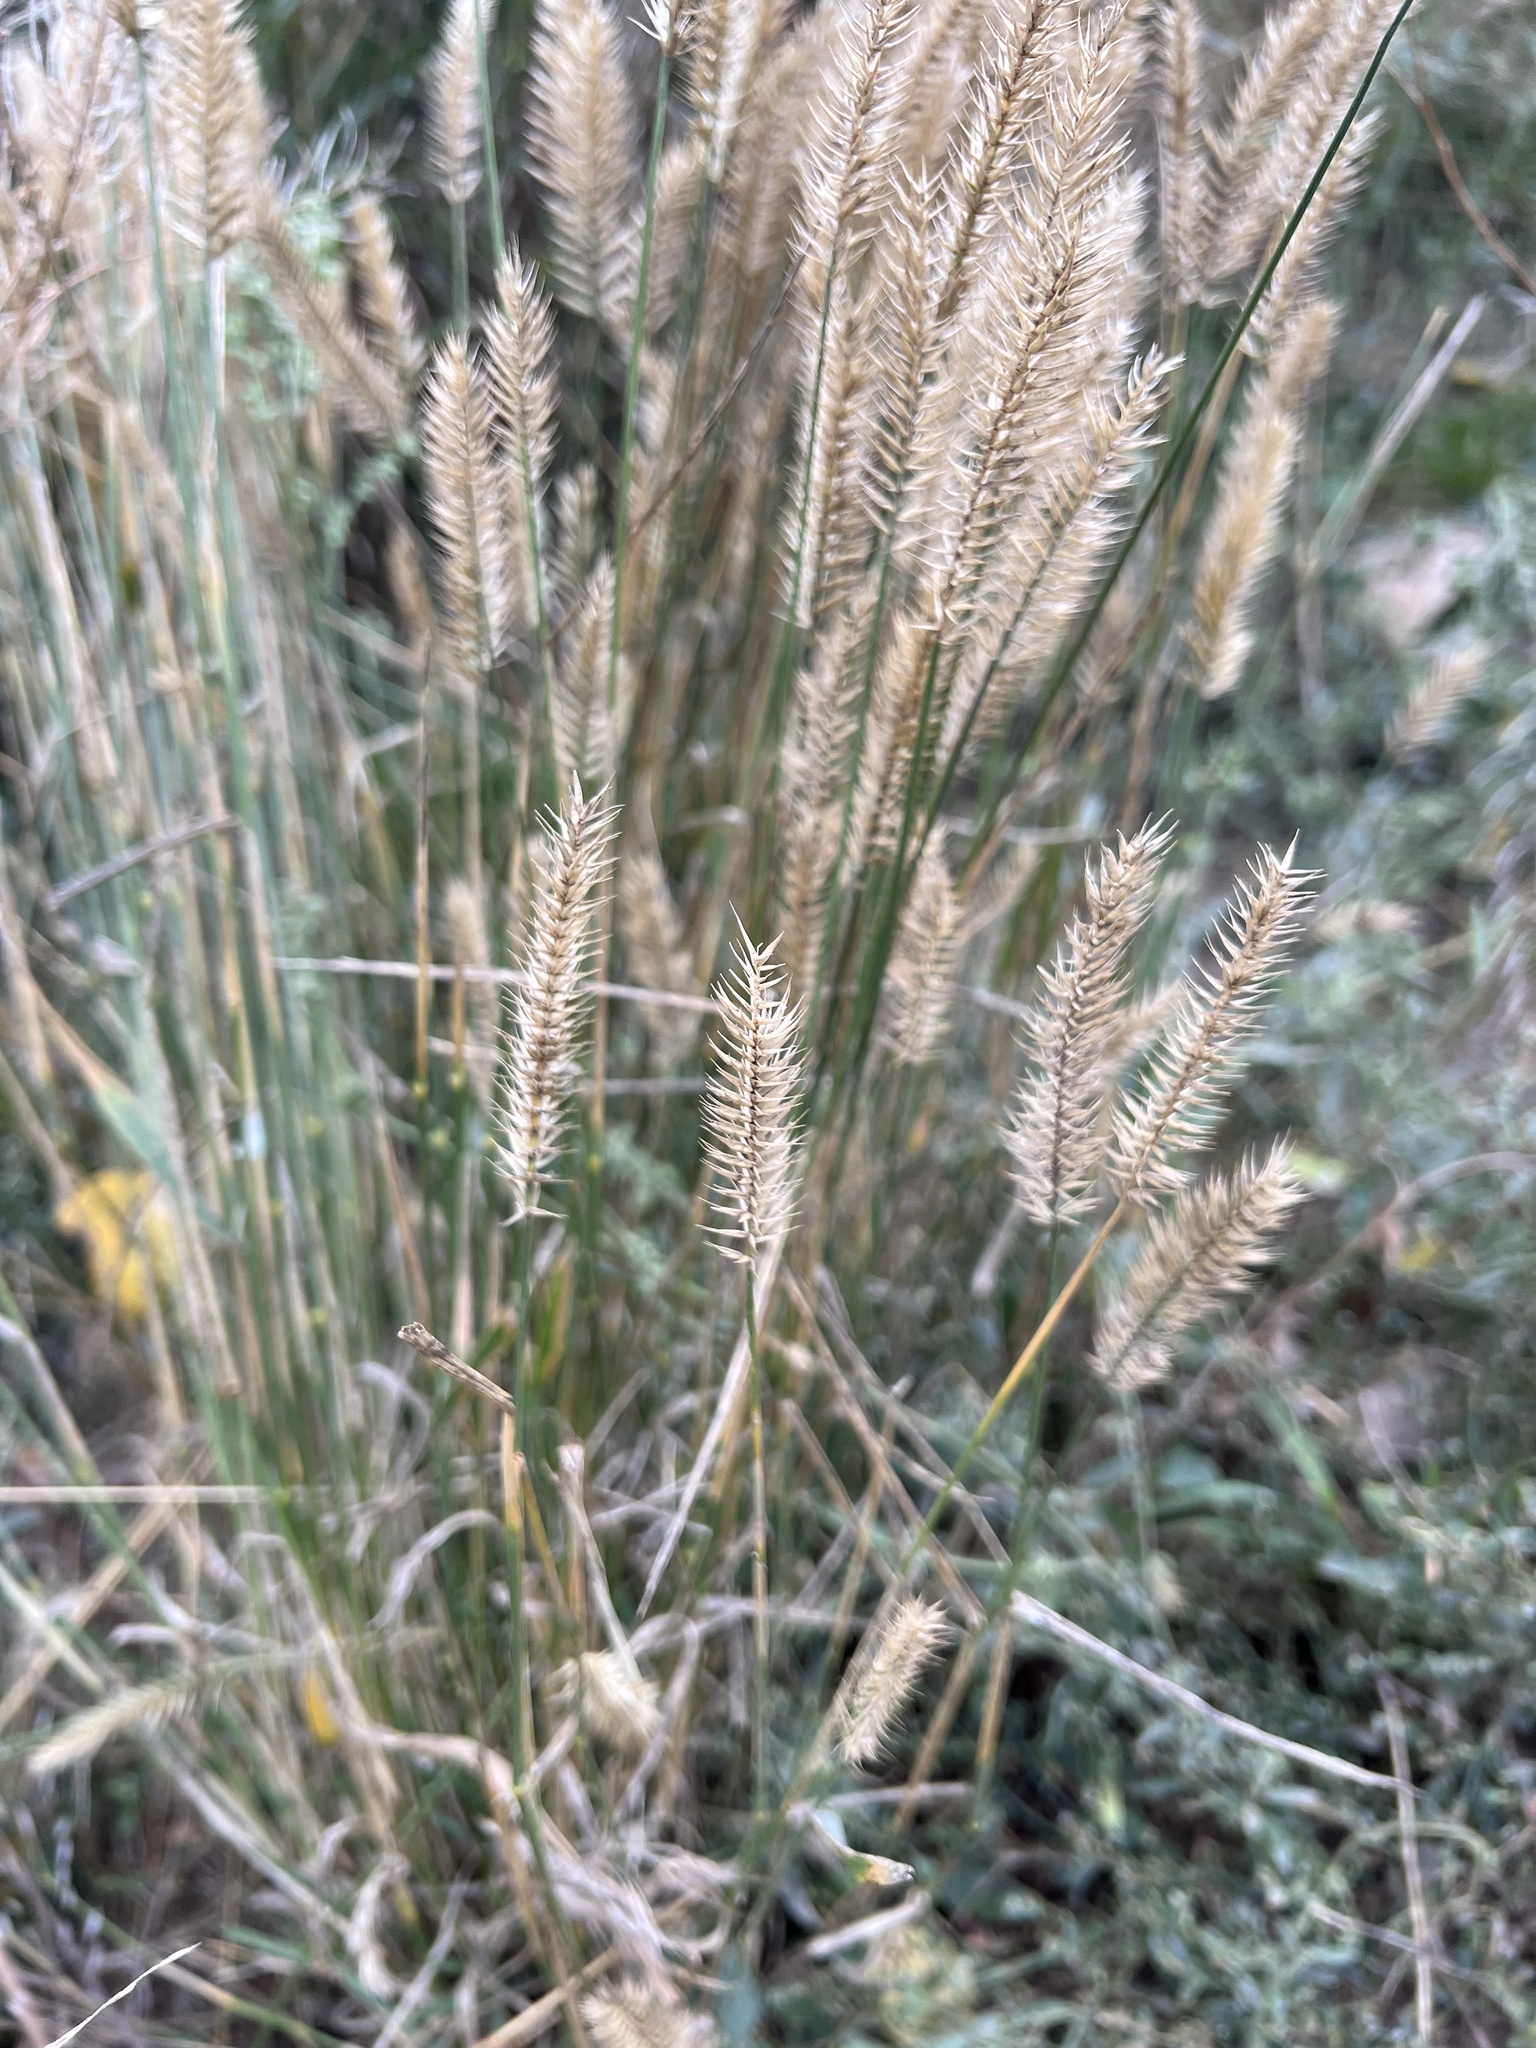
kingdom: Plantae
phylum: Tracheophyta
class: Liliopsida
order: Poales
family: Poaceae
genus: Agropyron
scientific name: Agropyron cristatum
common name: Crested wheatgrass
